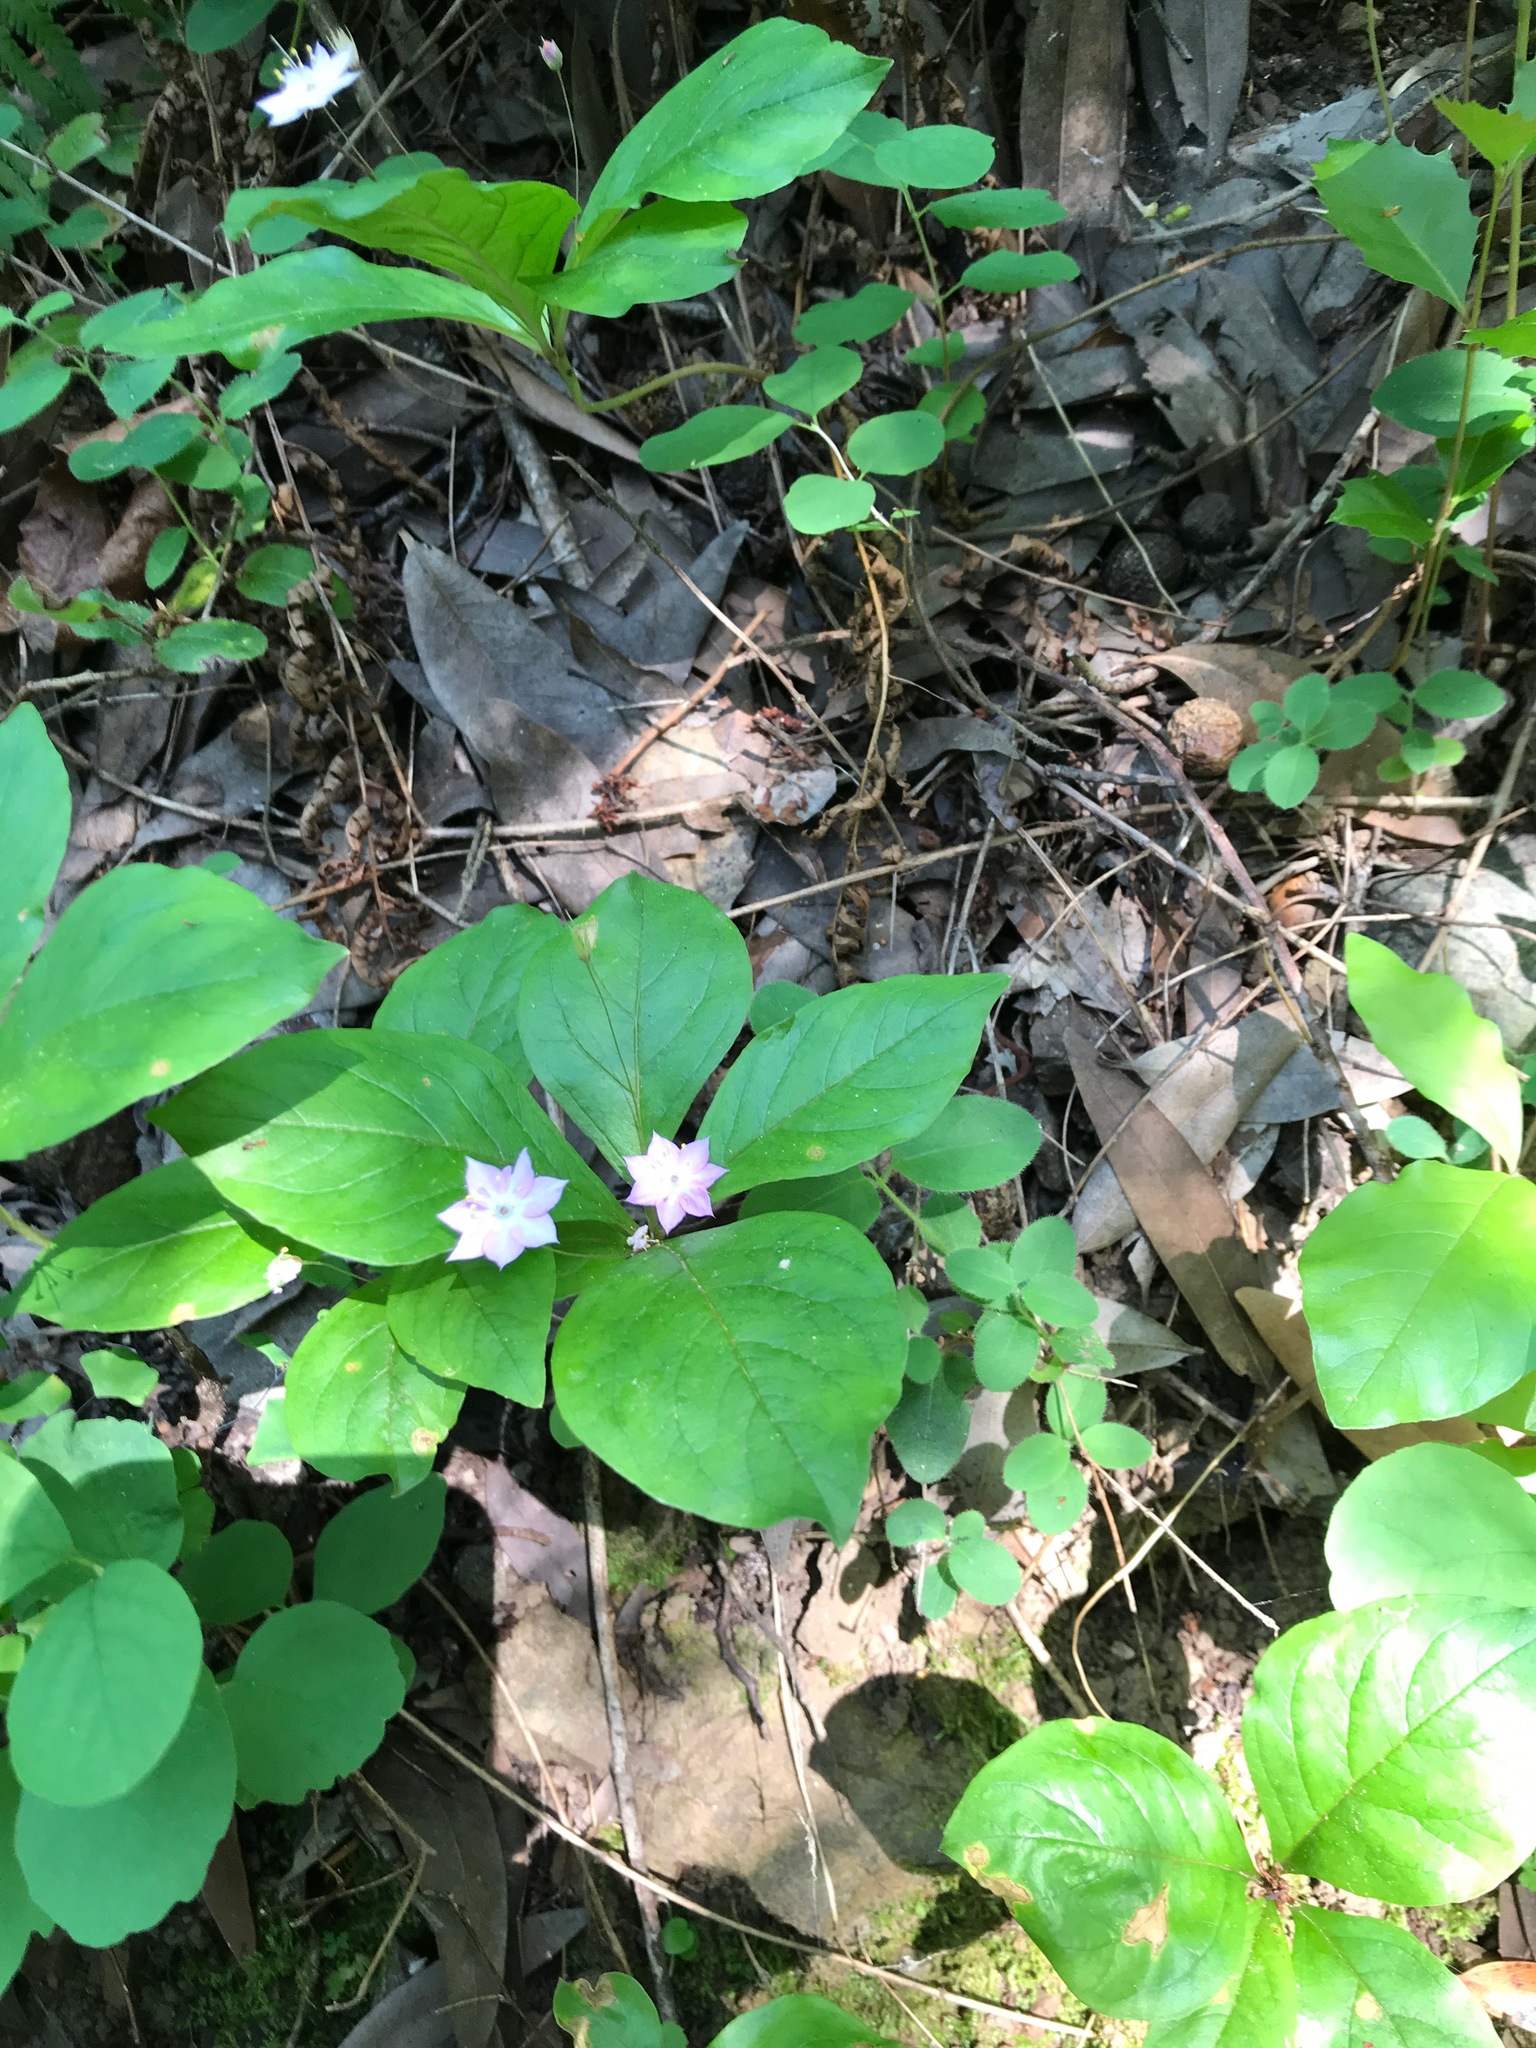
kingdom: Plantae
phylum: Tracheophyta
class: Magnoliopsida
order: Ericales
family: Primulaceae
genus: Lysimachia
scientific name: Lysimachia latifolia
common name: Pacific starflower
